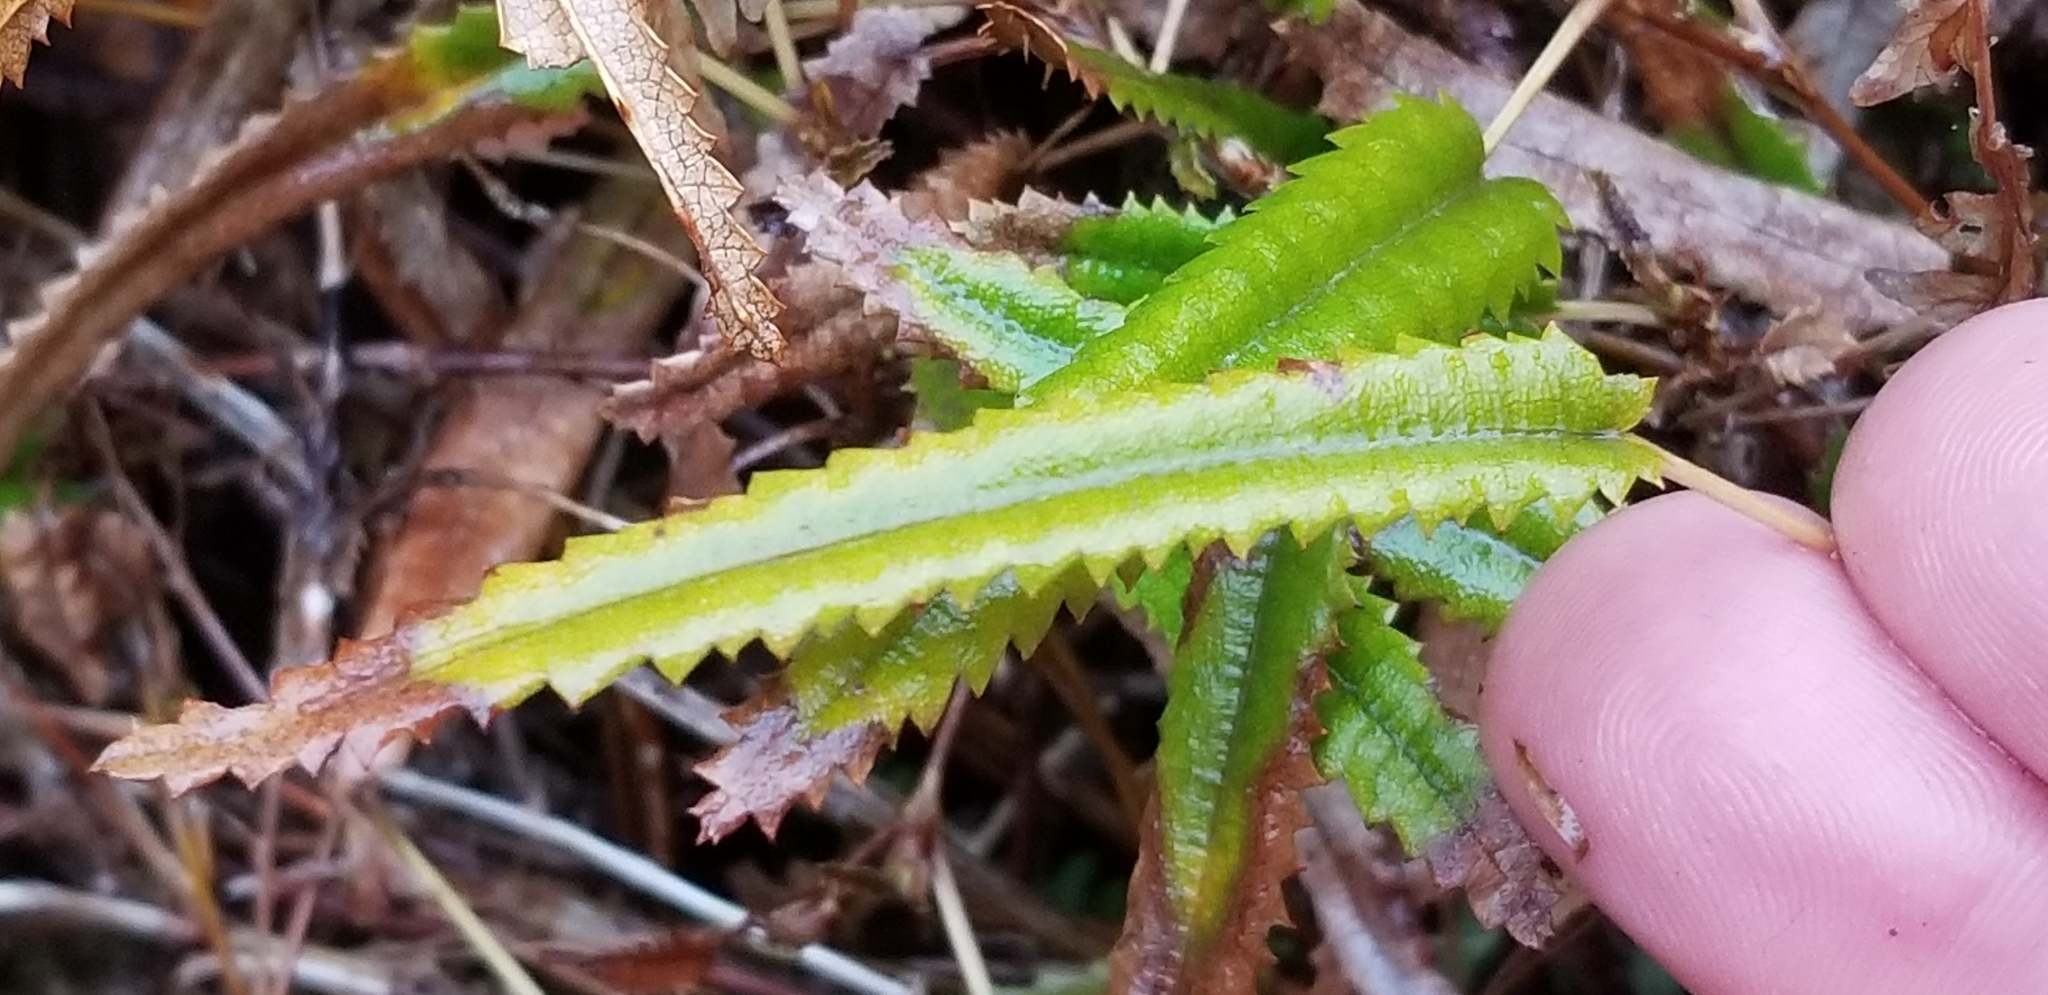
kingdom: Plantae
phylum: Tracheophyta
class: Magnoliopsida
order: Rosales
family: Rosaceae
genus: Rubus
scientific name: Rubus parvus
